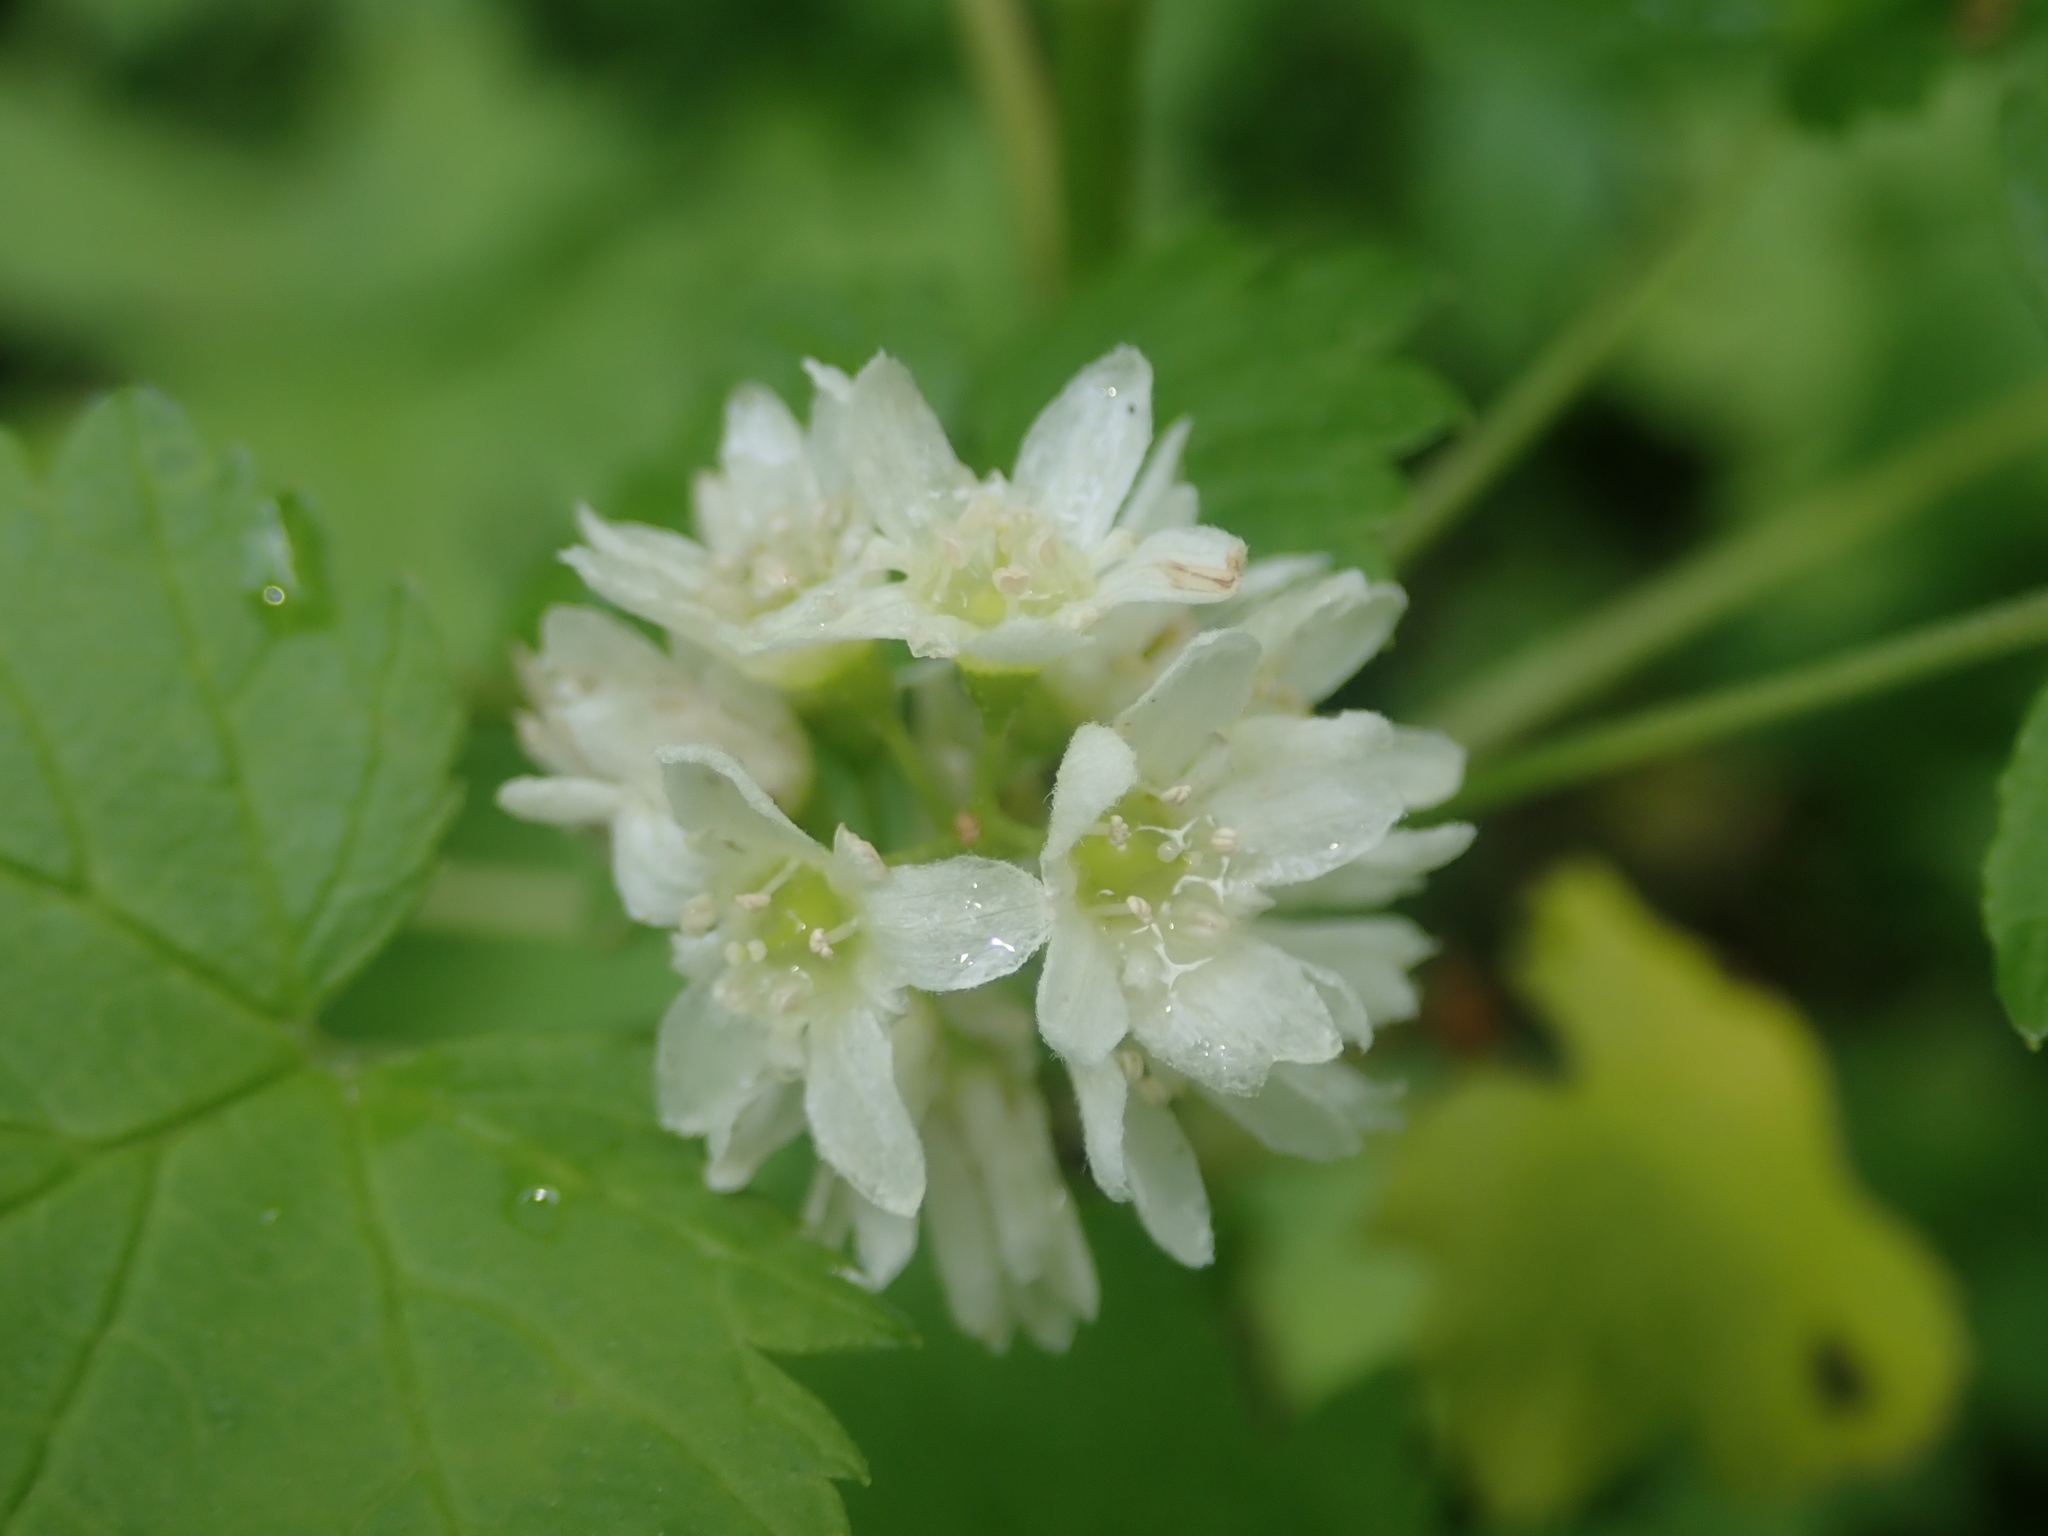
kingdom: Plantae
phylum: Tracheophyta
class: Magnoliopsida
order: Saxifragales
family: Grossulariaceae
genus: Ribes
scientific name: Ribes hudsonianum
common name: Northern black currant
